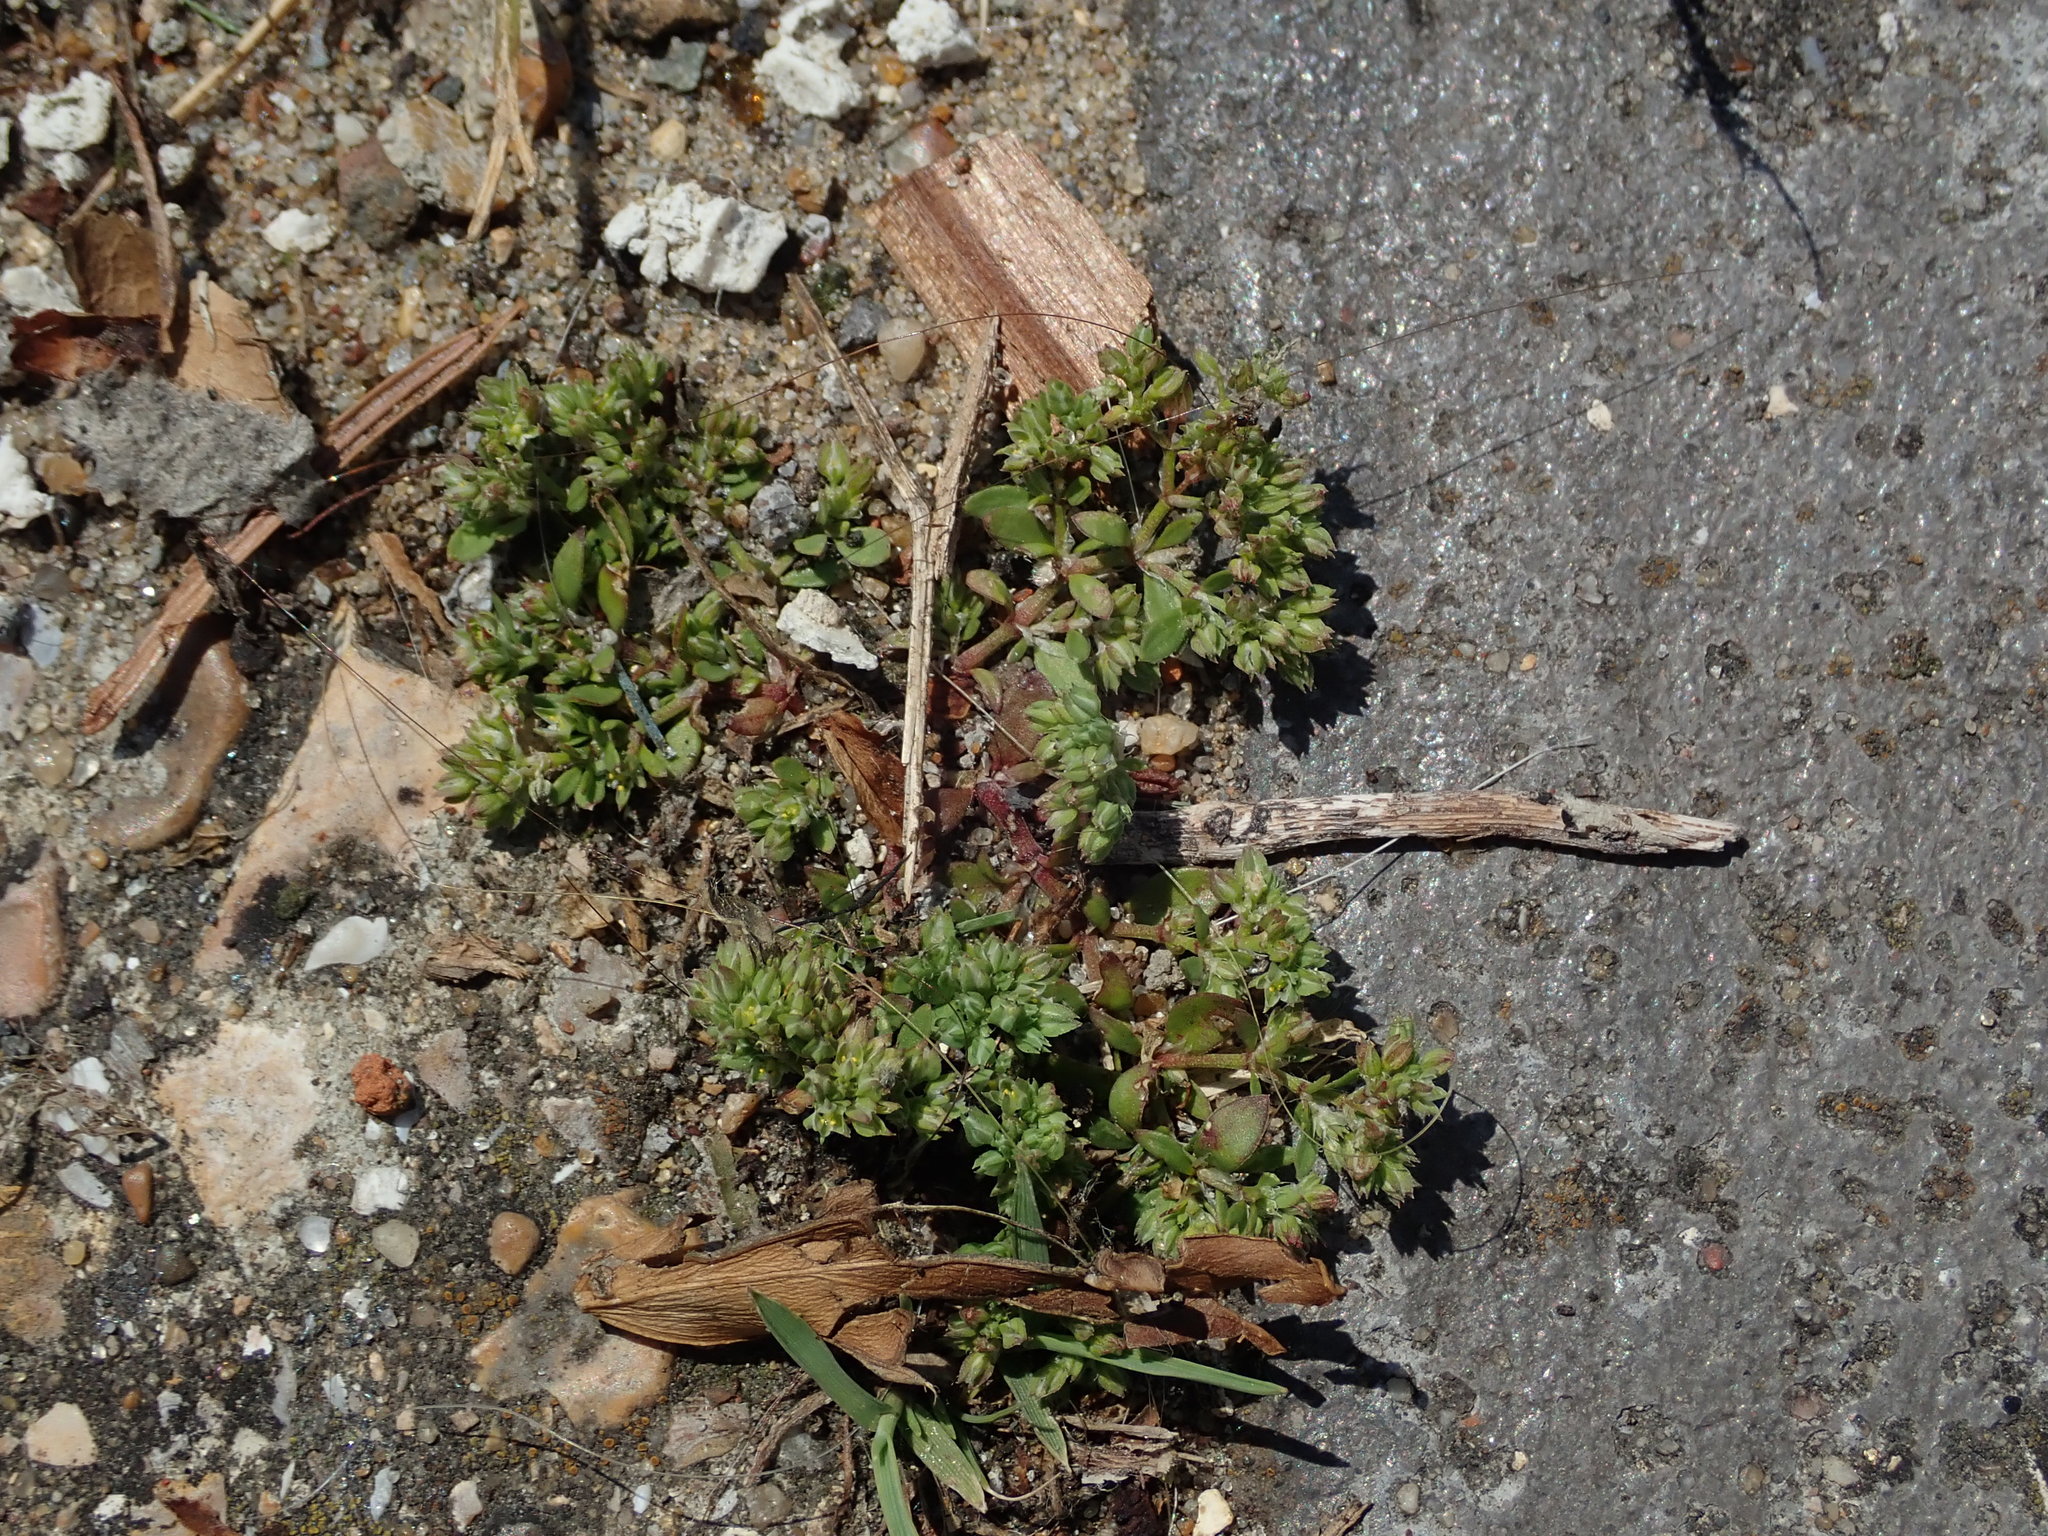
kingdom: Plantae
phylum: Tracheophyta
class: Magnoliopsida
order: Caryophyllales
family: Caryophyllaceae
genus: Polycarpon
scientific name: Polycarpon tetraphyllum
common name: Four-leaved all-seed
